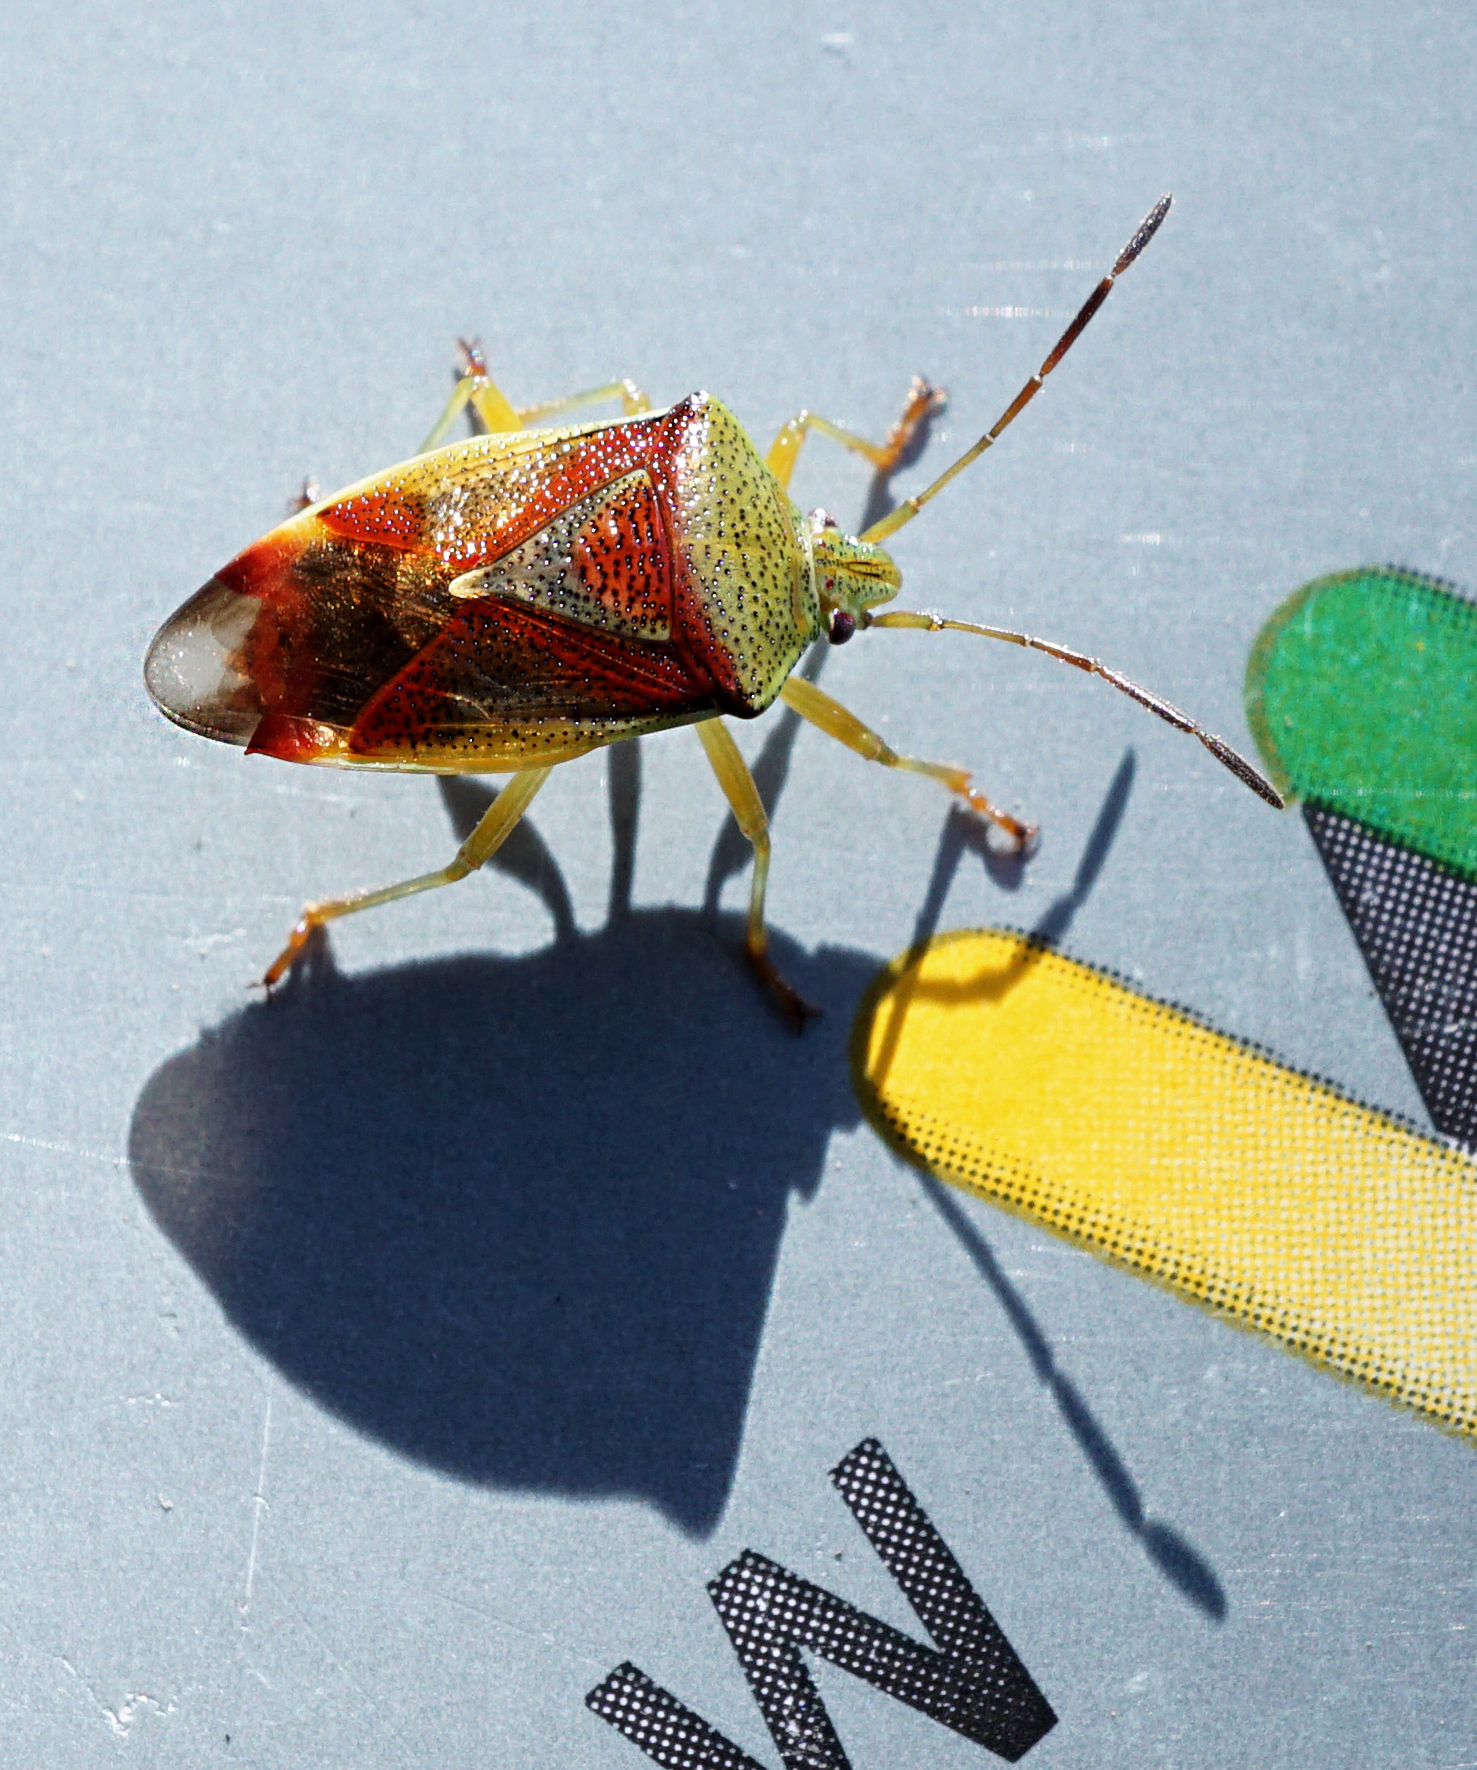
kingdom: Animalia
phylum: Arthropoda
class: Insecta
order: Hemiptera
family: Acanthosomatidae
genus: Elasmostethus
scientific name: Elasmostethus interstinctus
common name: Birch shieldbug
